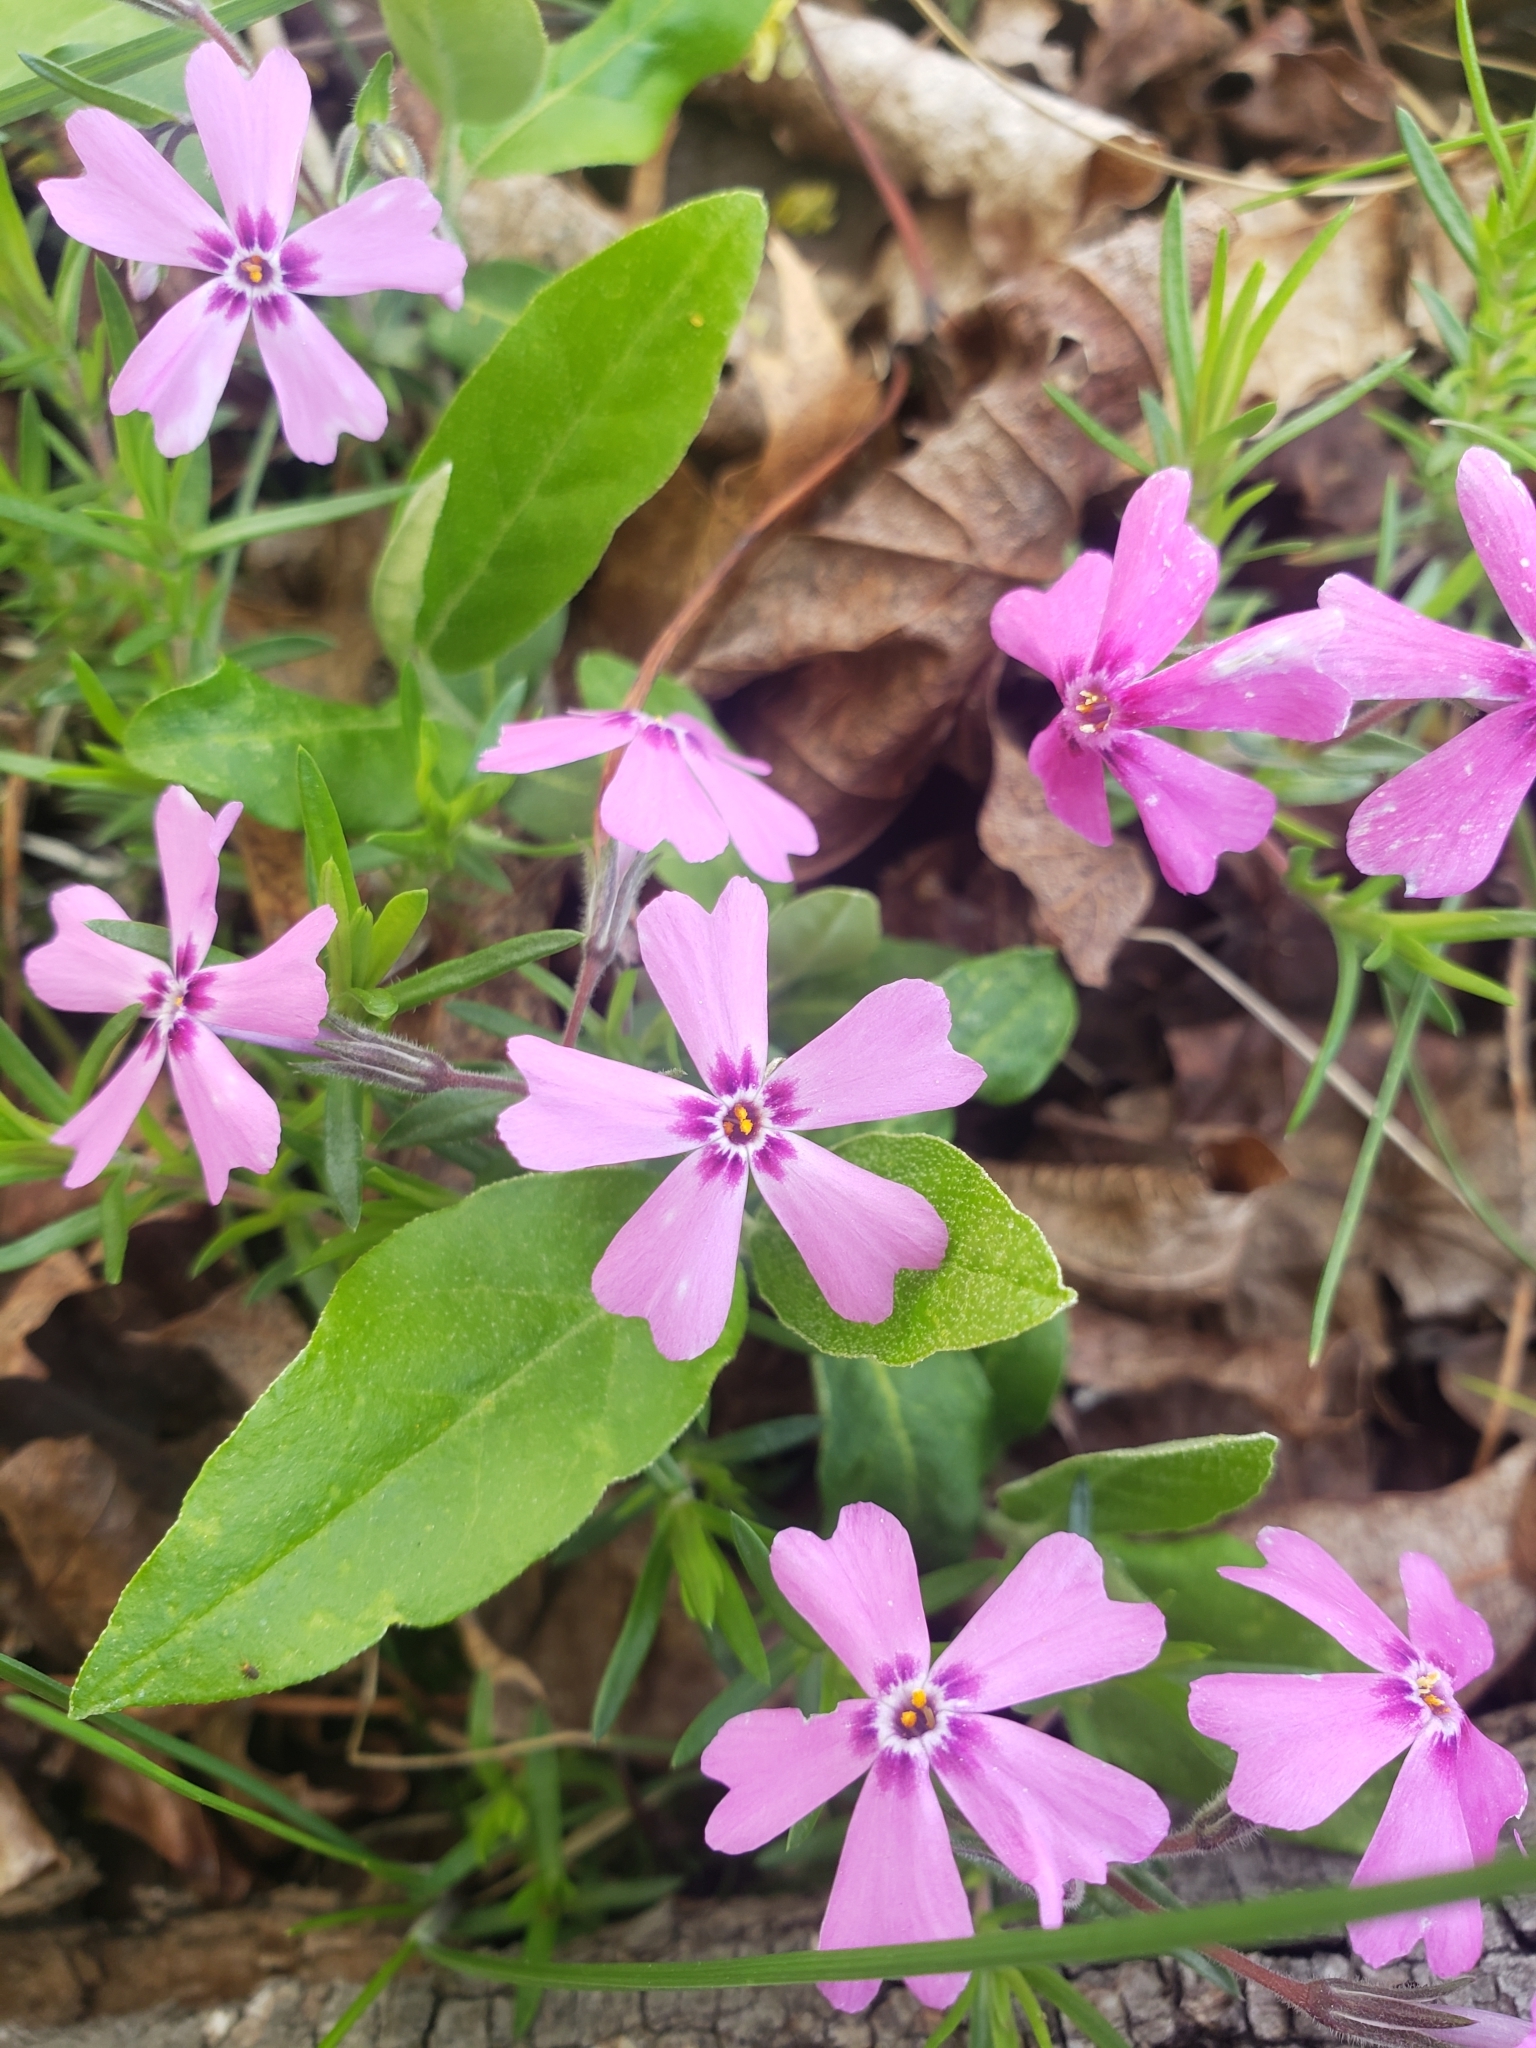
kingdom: Plantae
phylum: Tracheophyta
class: Magnoliopsida
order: Ericales
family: Polemoniaceae
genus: Phlox
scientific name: Phlox subulata
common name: Moss phlox
